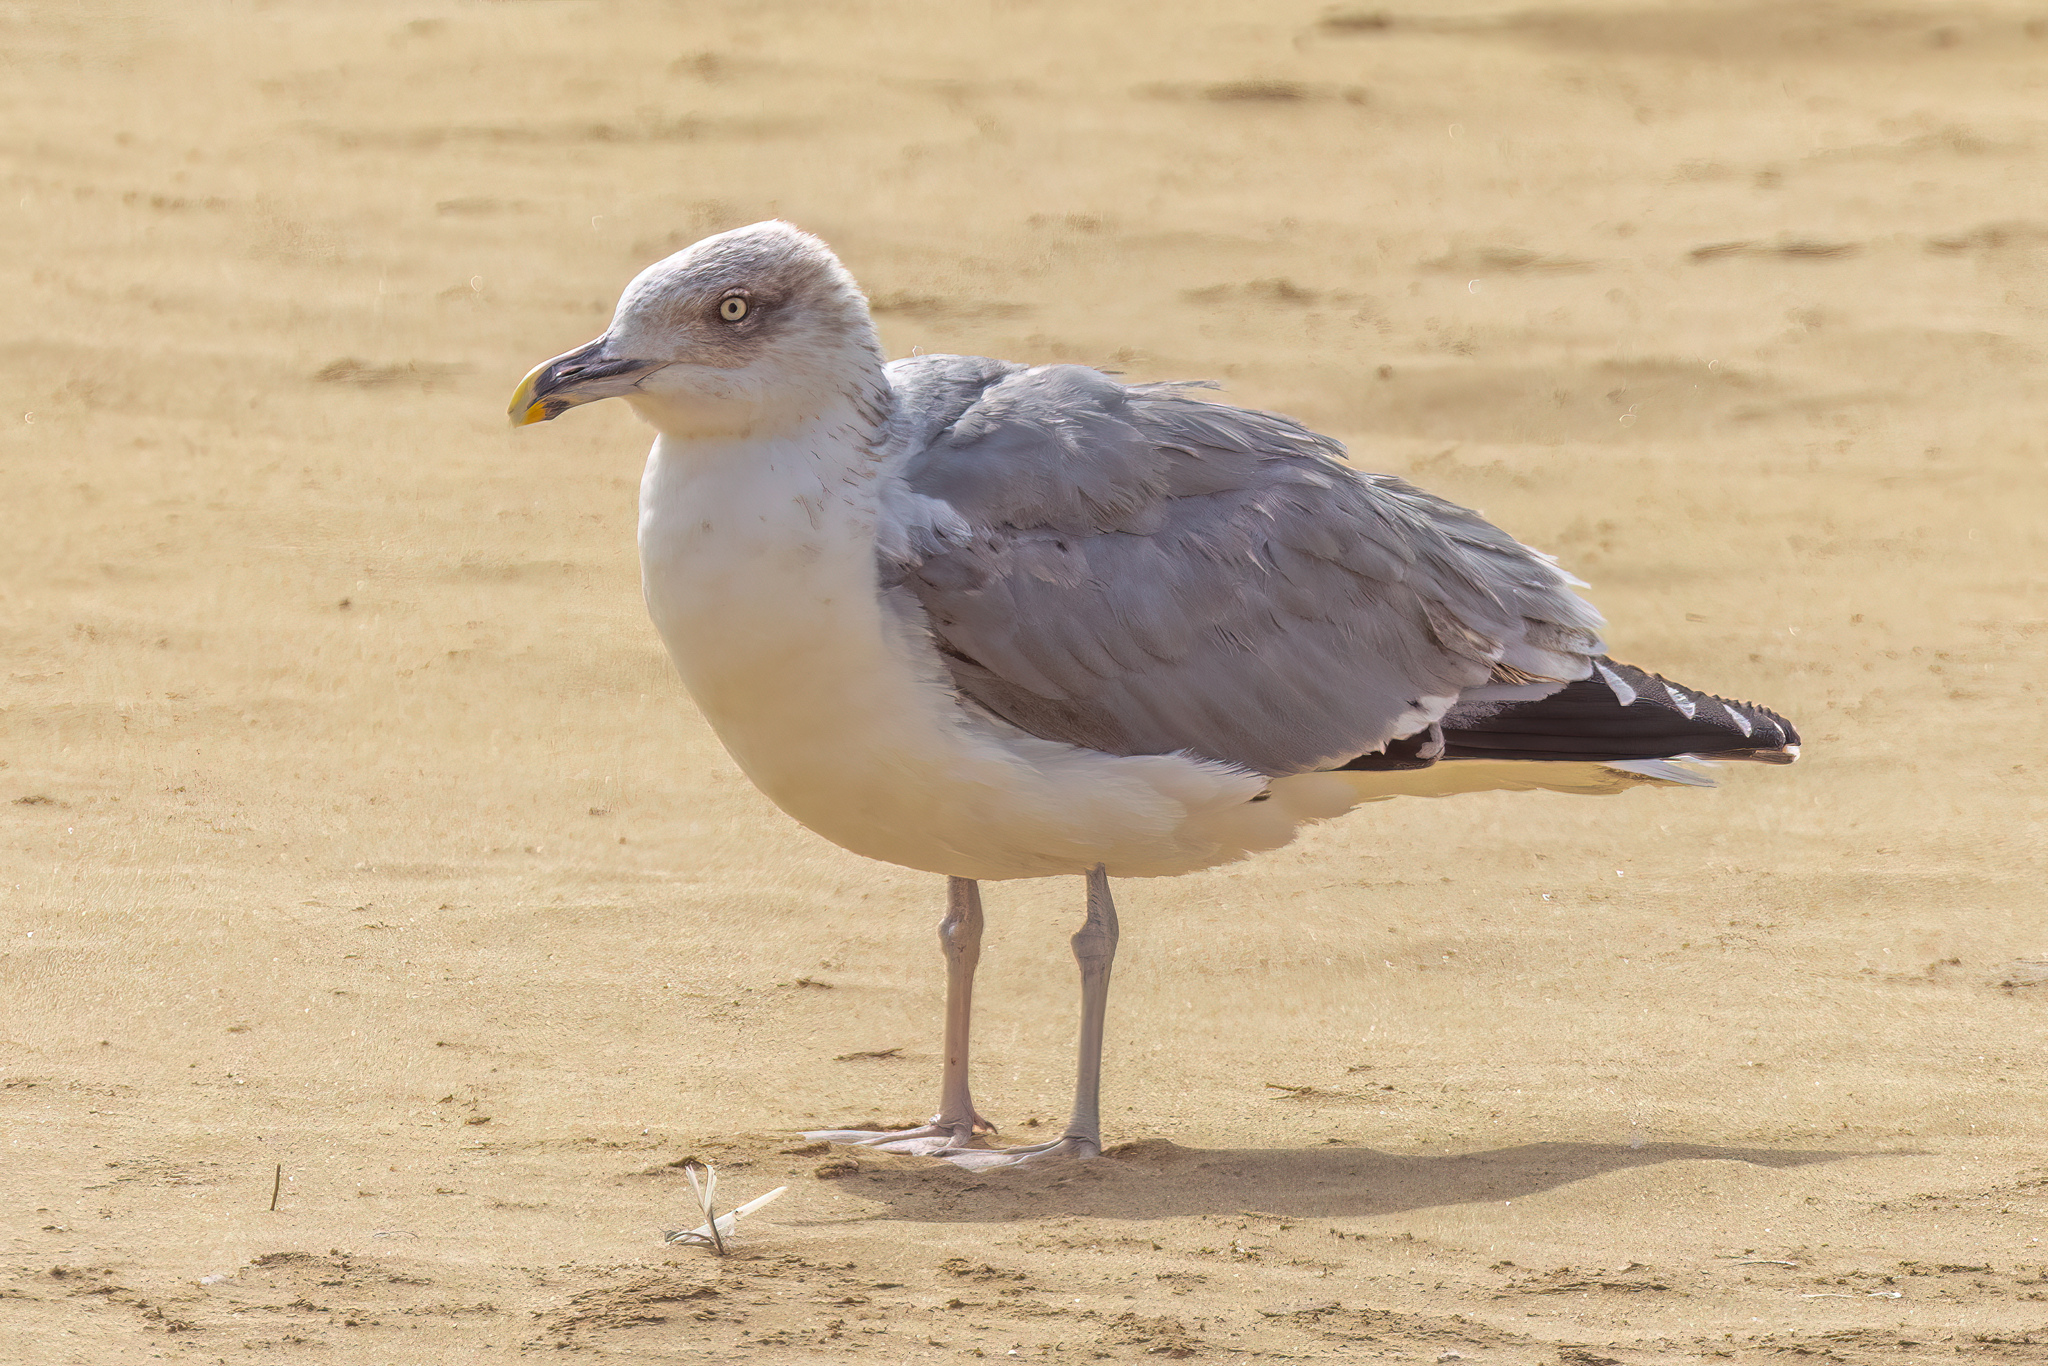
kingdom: Animalia
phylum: Chordata
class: Aves
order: Charadriiformes
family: Laridae
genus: Larus
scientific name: Larus michahellis
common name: Yellow-legged gull
